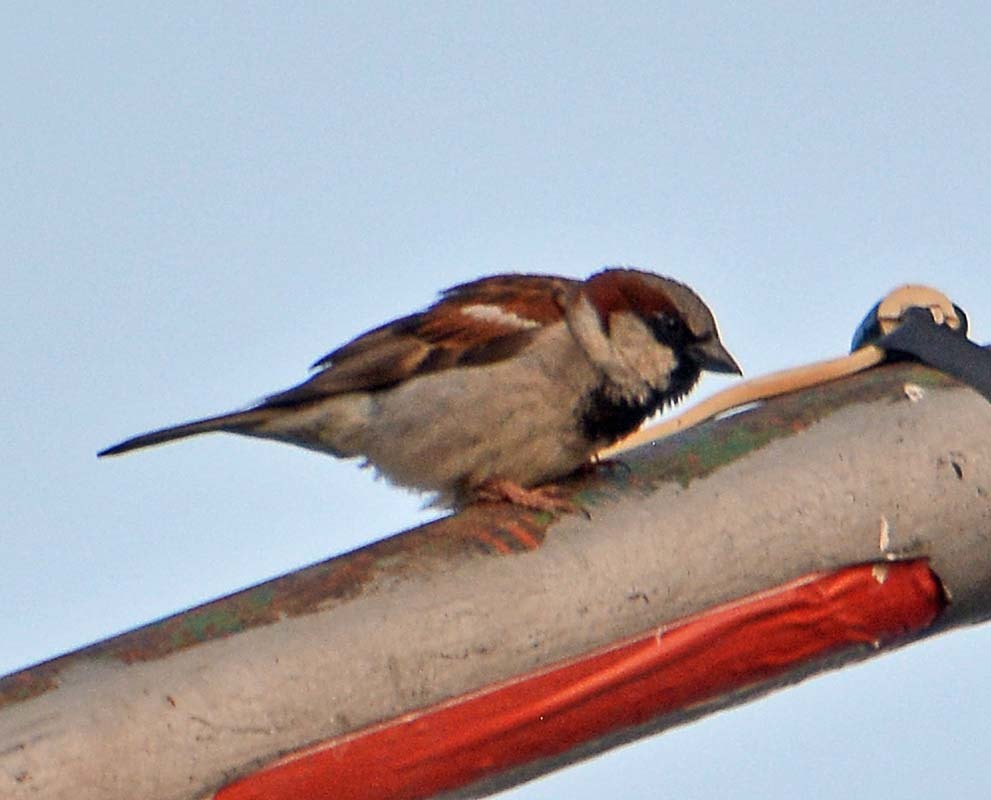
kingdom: Animalia
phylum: Chordata
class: Aves
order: Passeriformes
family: Passeridae
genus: Passer
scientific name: Passer domesticus
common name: House sparrow
